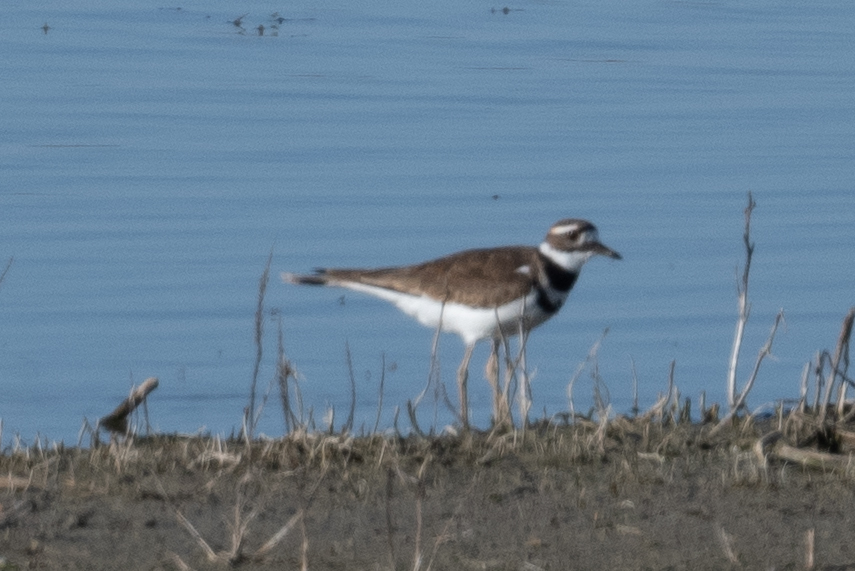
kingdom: Animalia
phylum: Chordata
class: Aves
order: Charadriiformes
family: Charadriidae
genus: Charadrius
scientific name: Charadrius vociferus
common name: Killdeer
